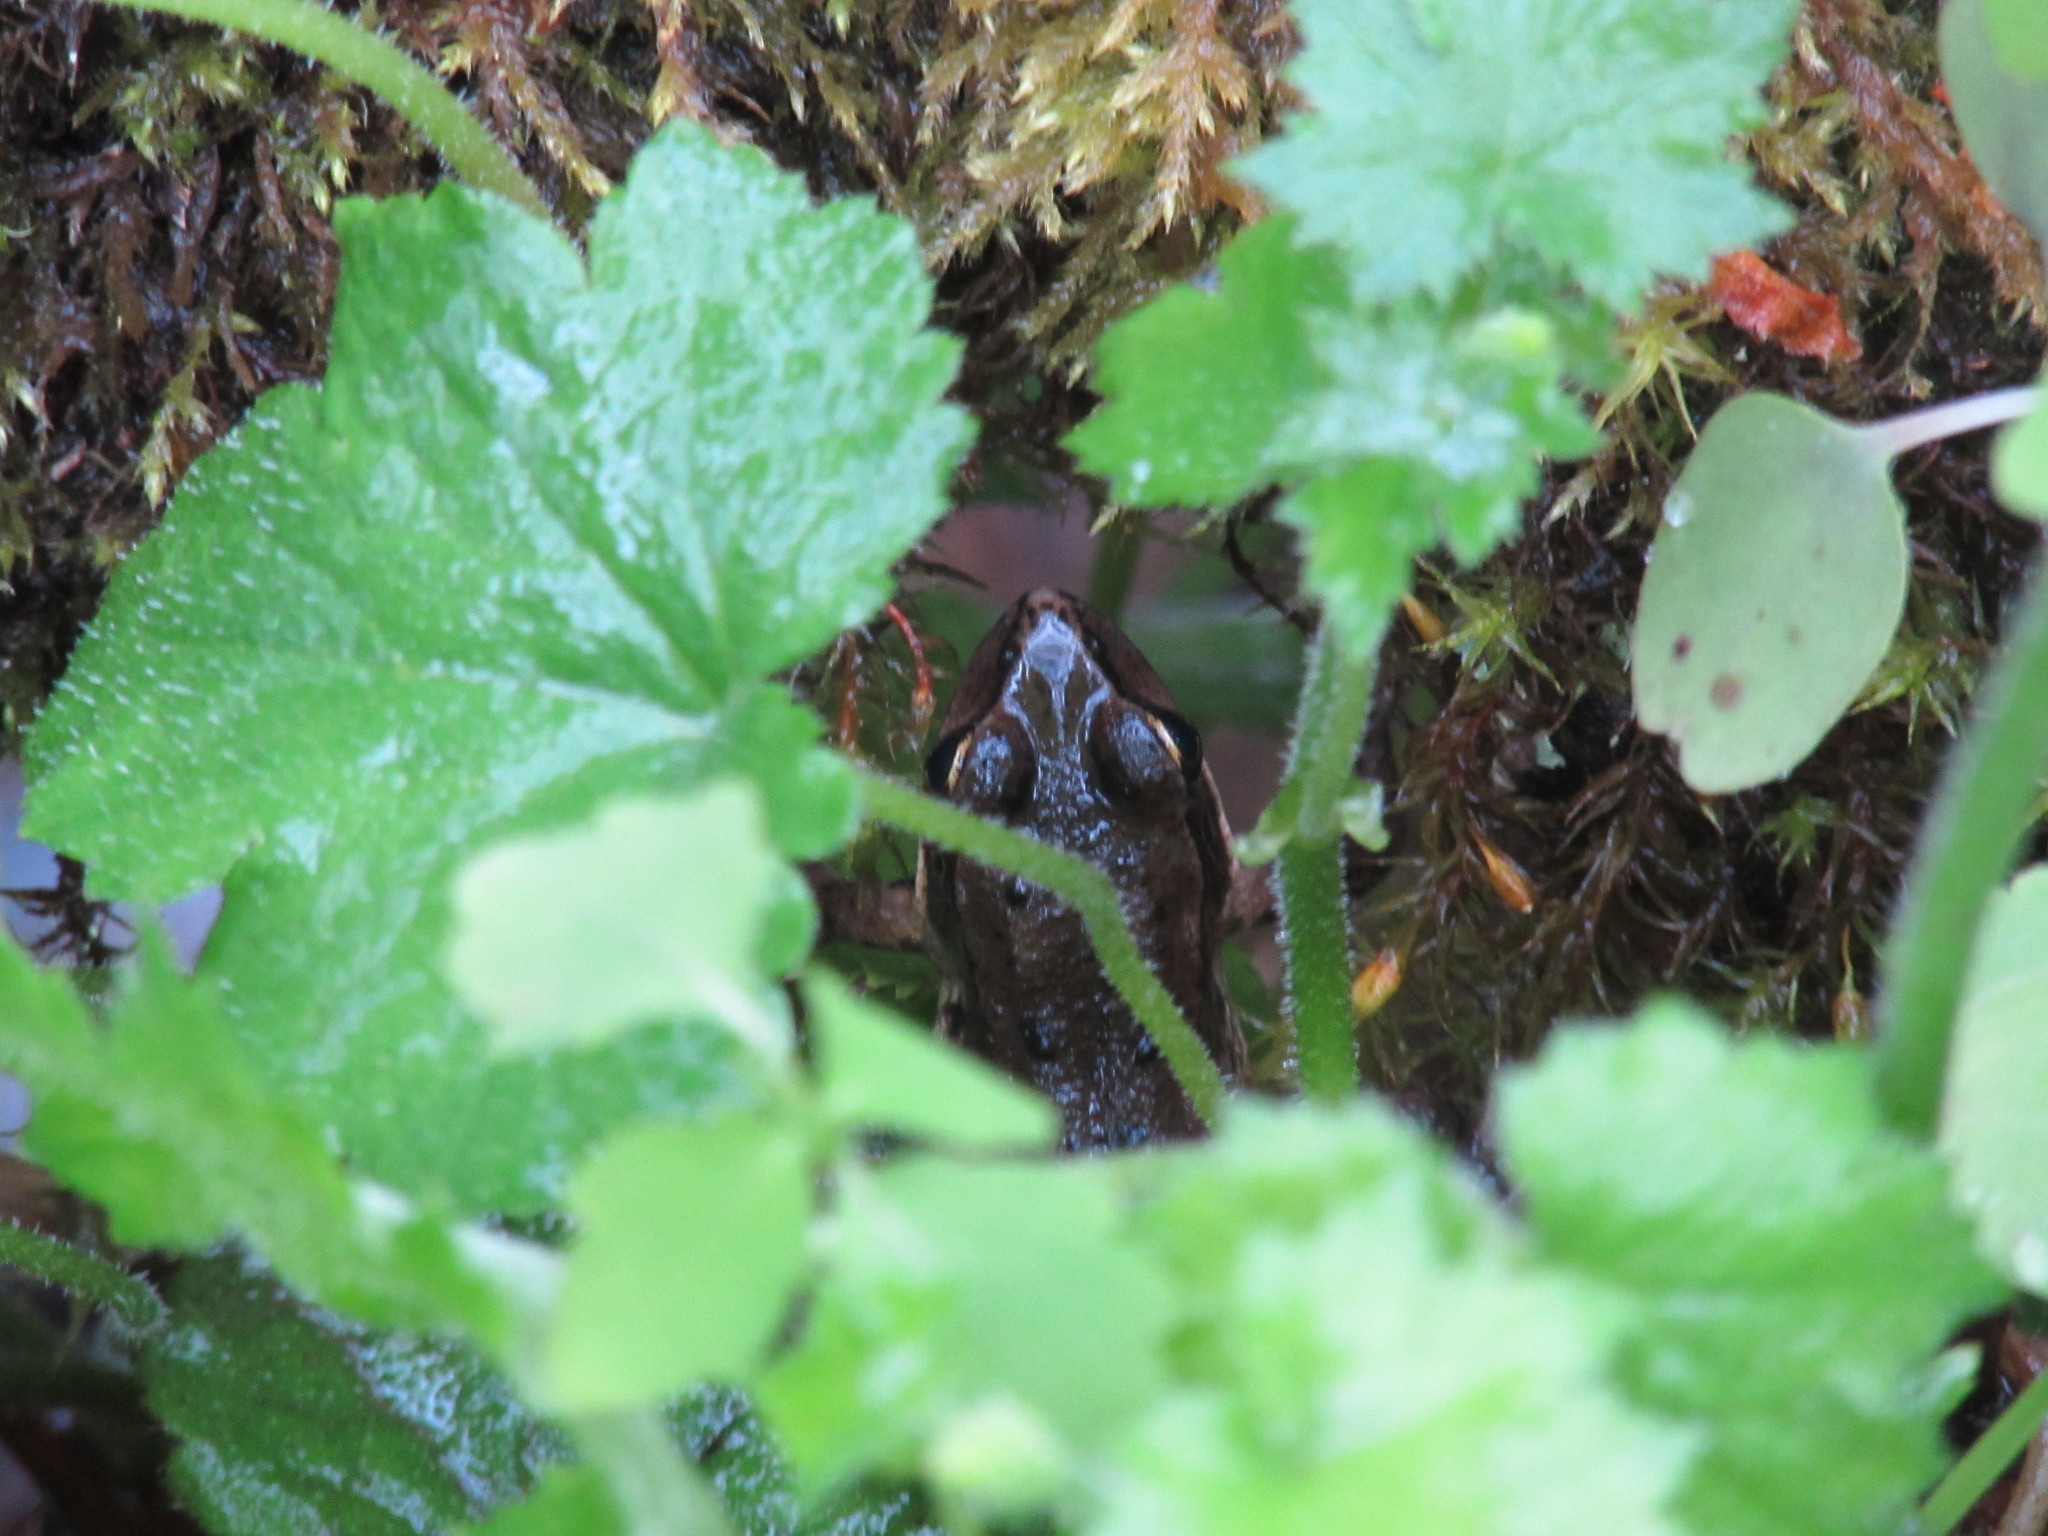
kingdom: Animalia
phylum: Chordata
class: Amphibia
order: Anura
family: Ranidae
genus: Rana
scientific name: Rana aurora
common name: Red-legged frog
